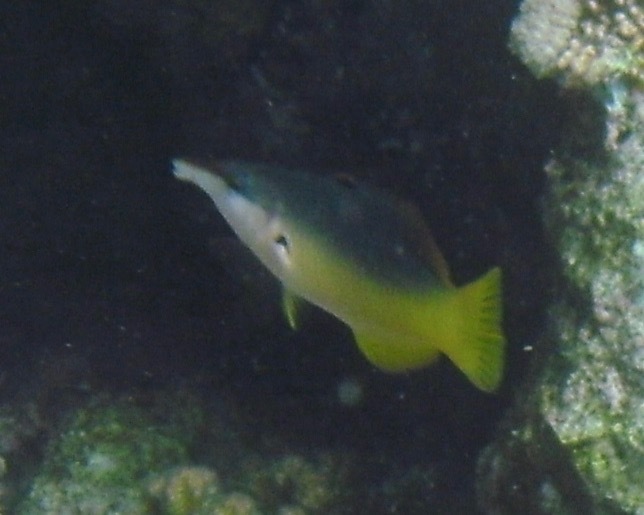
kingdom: Animalia
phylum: Chordata
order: Perciformes
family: Labridae
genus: Gomphosus
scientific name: Gomphosus klunzingeri
